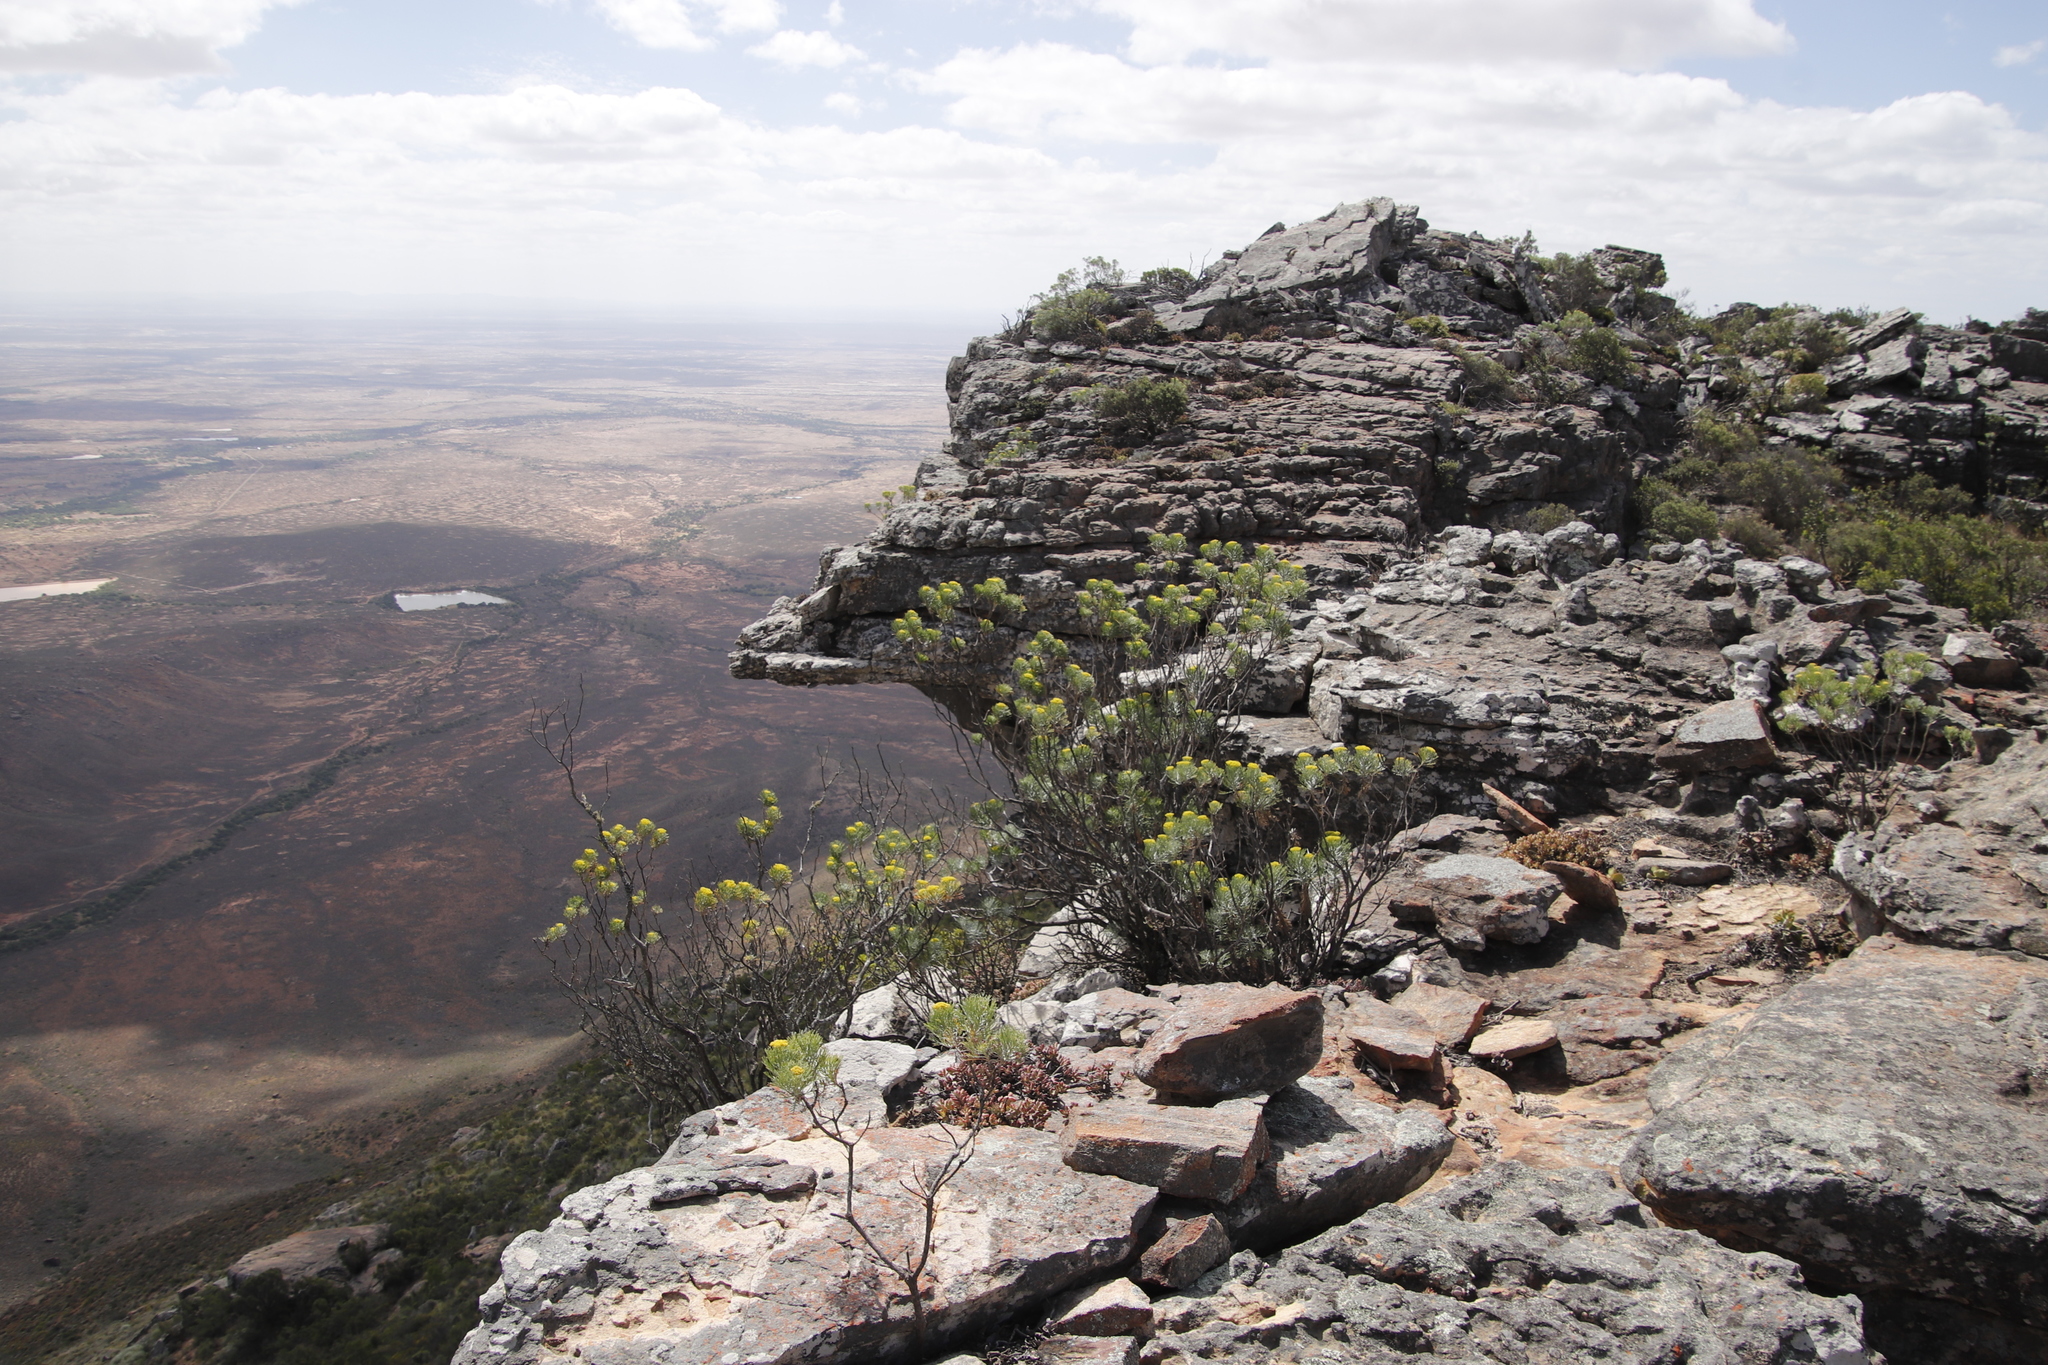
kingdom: Plantae
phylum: Tracheophyta
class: Magnoliopsida
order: Asterales
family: Asteraceae
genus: Hymenolepis
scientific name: Hymenolepis crithmifolia
